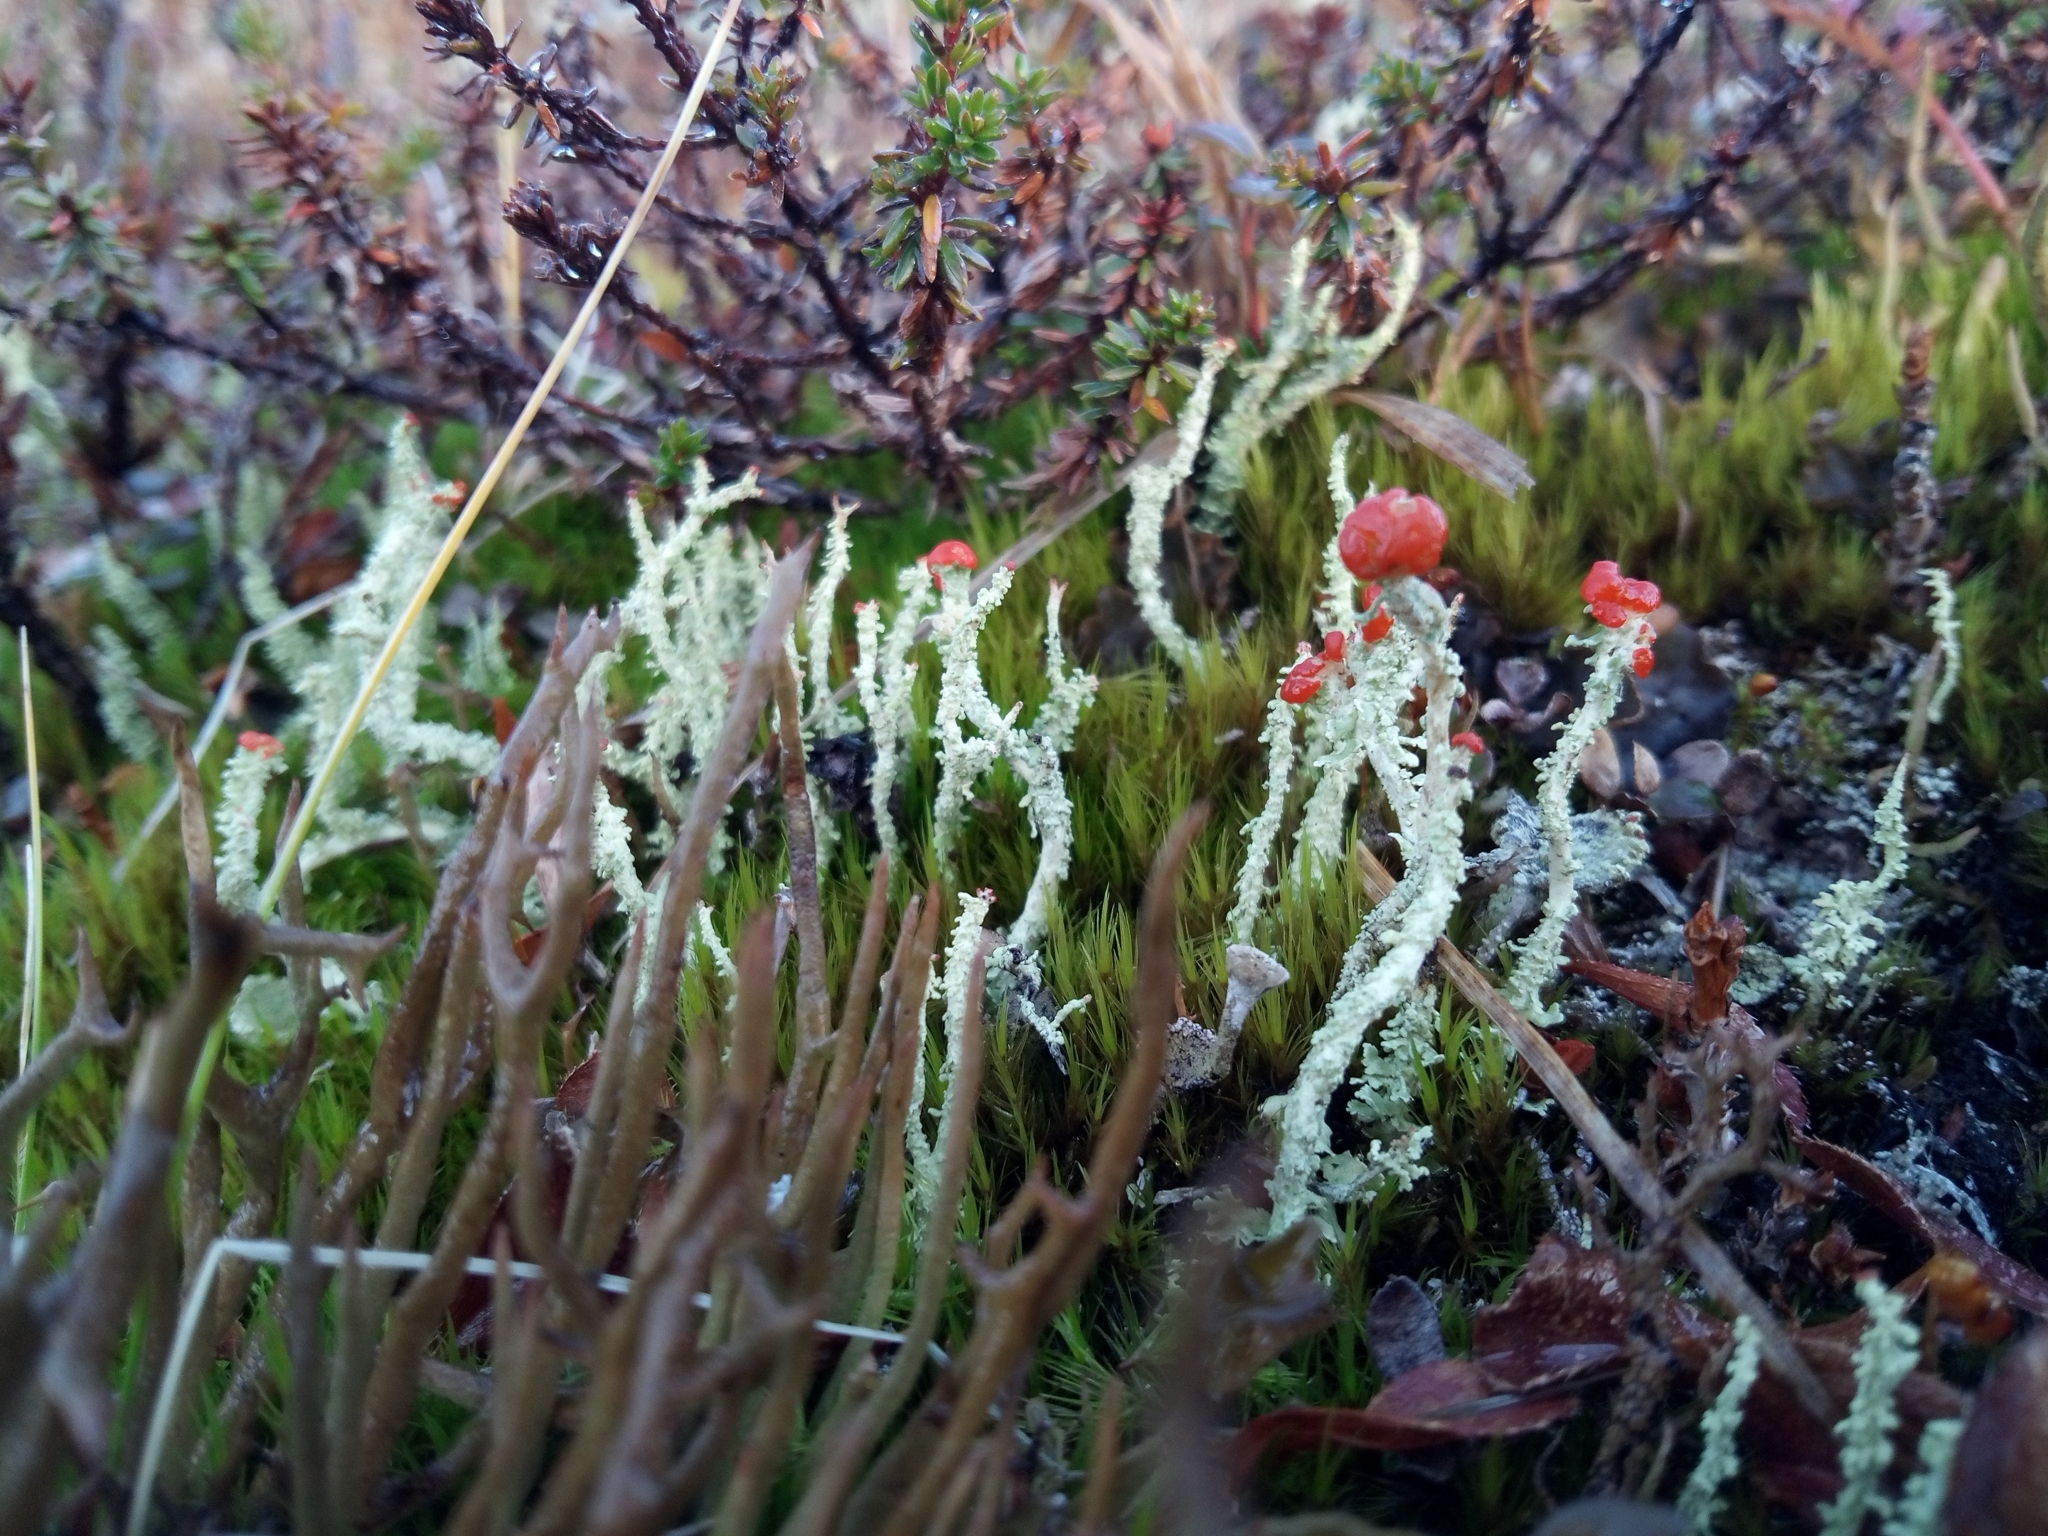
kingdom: Fungi
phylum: Ascomycota
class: Lecanoromycetes
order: Lecanorales
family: Cladoniaceae
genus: Cladonia
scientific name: Cladonia bellidiflora
